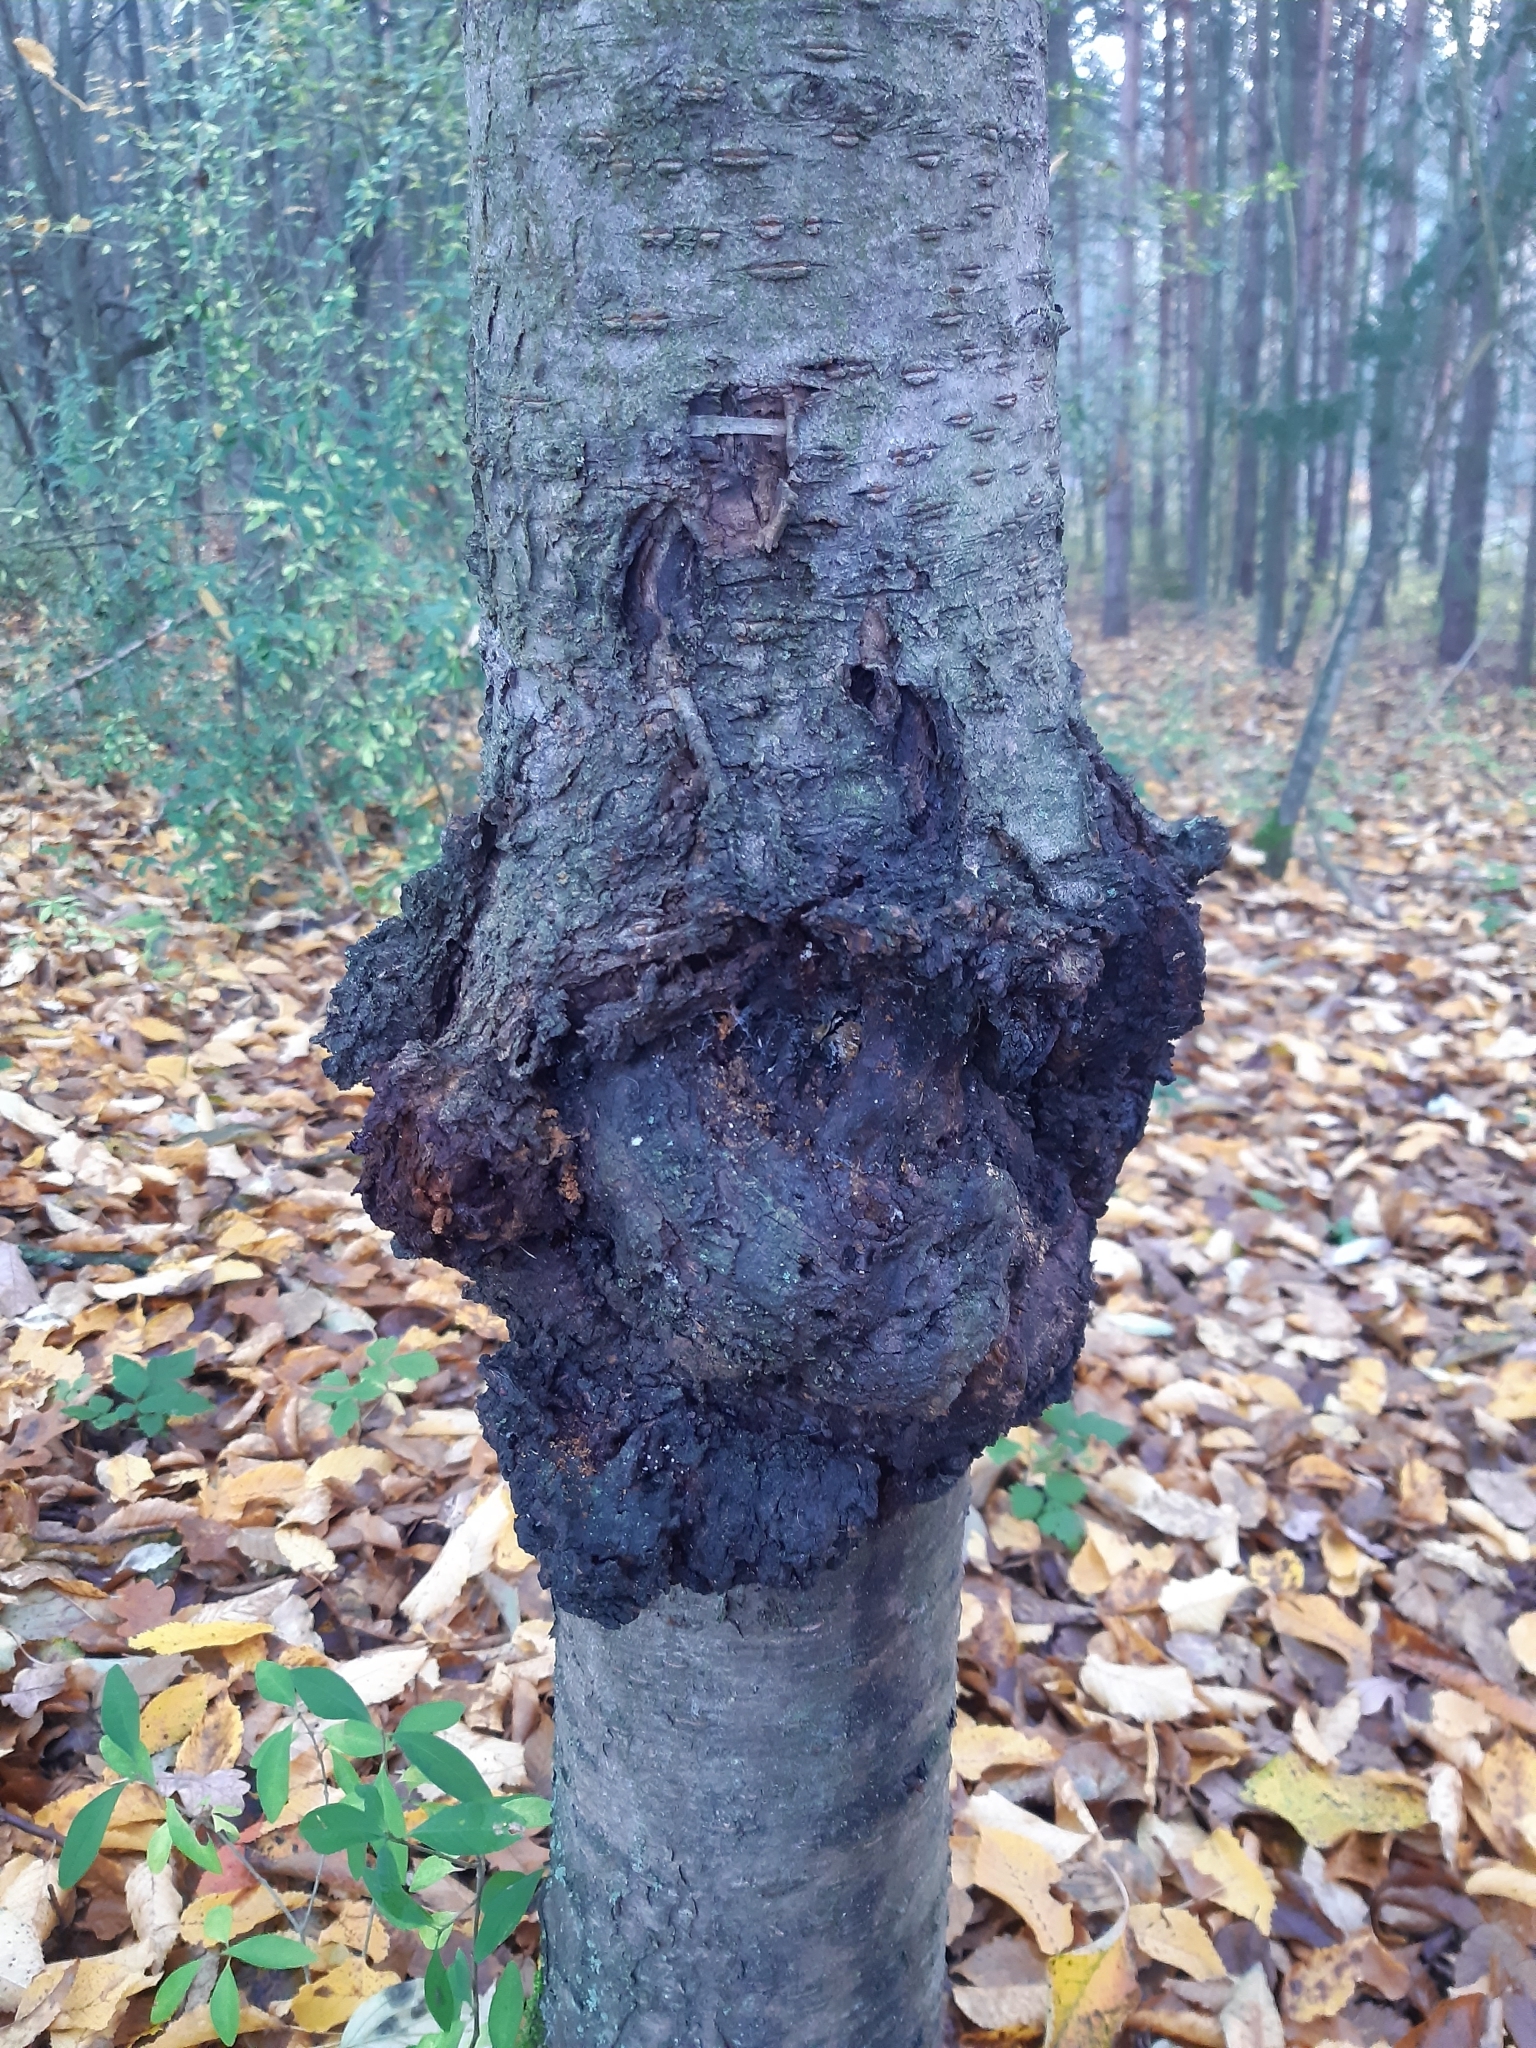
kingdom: Bacteria
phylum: Proteobacteria
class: Alphaproteobacteria
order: Rhizobiales
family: Rhizobiaceae
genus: Rhizobium
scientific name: Rhizobium Agrobacterium radiobacter
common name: Bacterial crown gall
